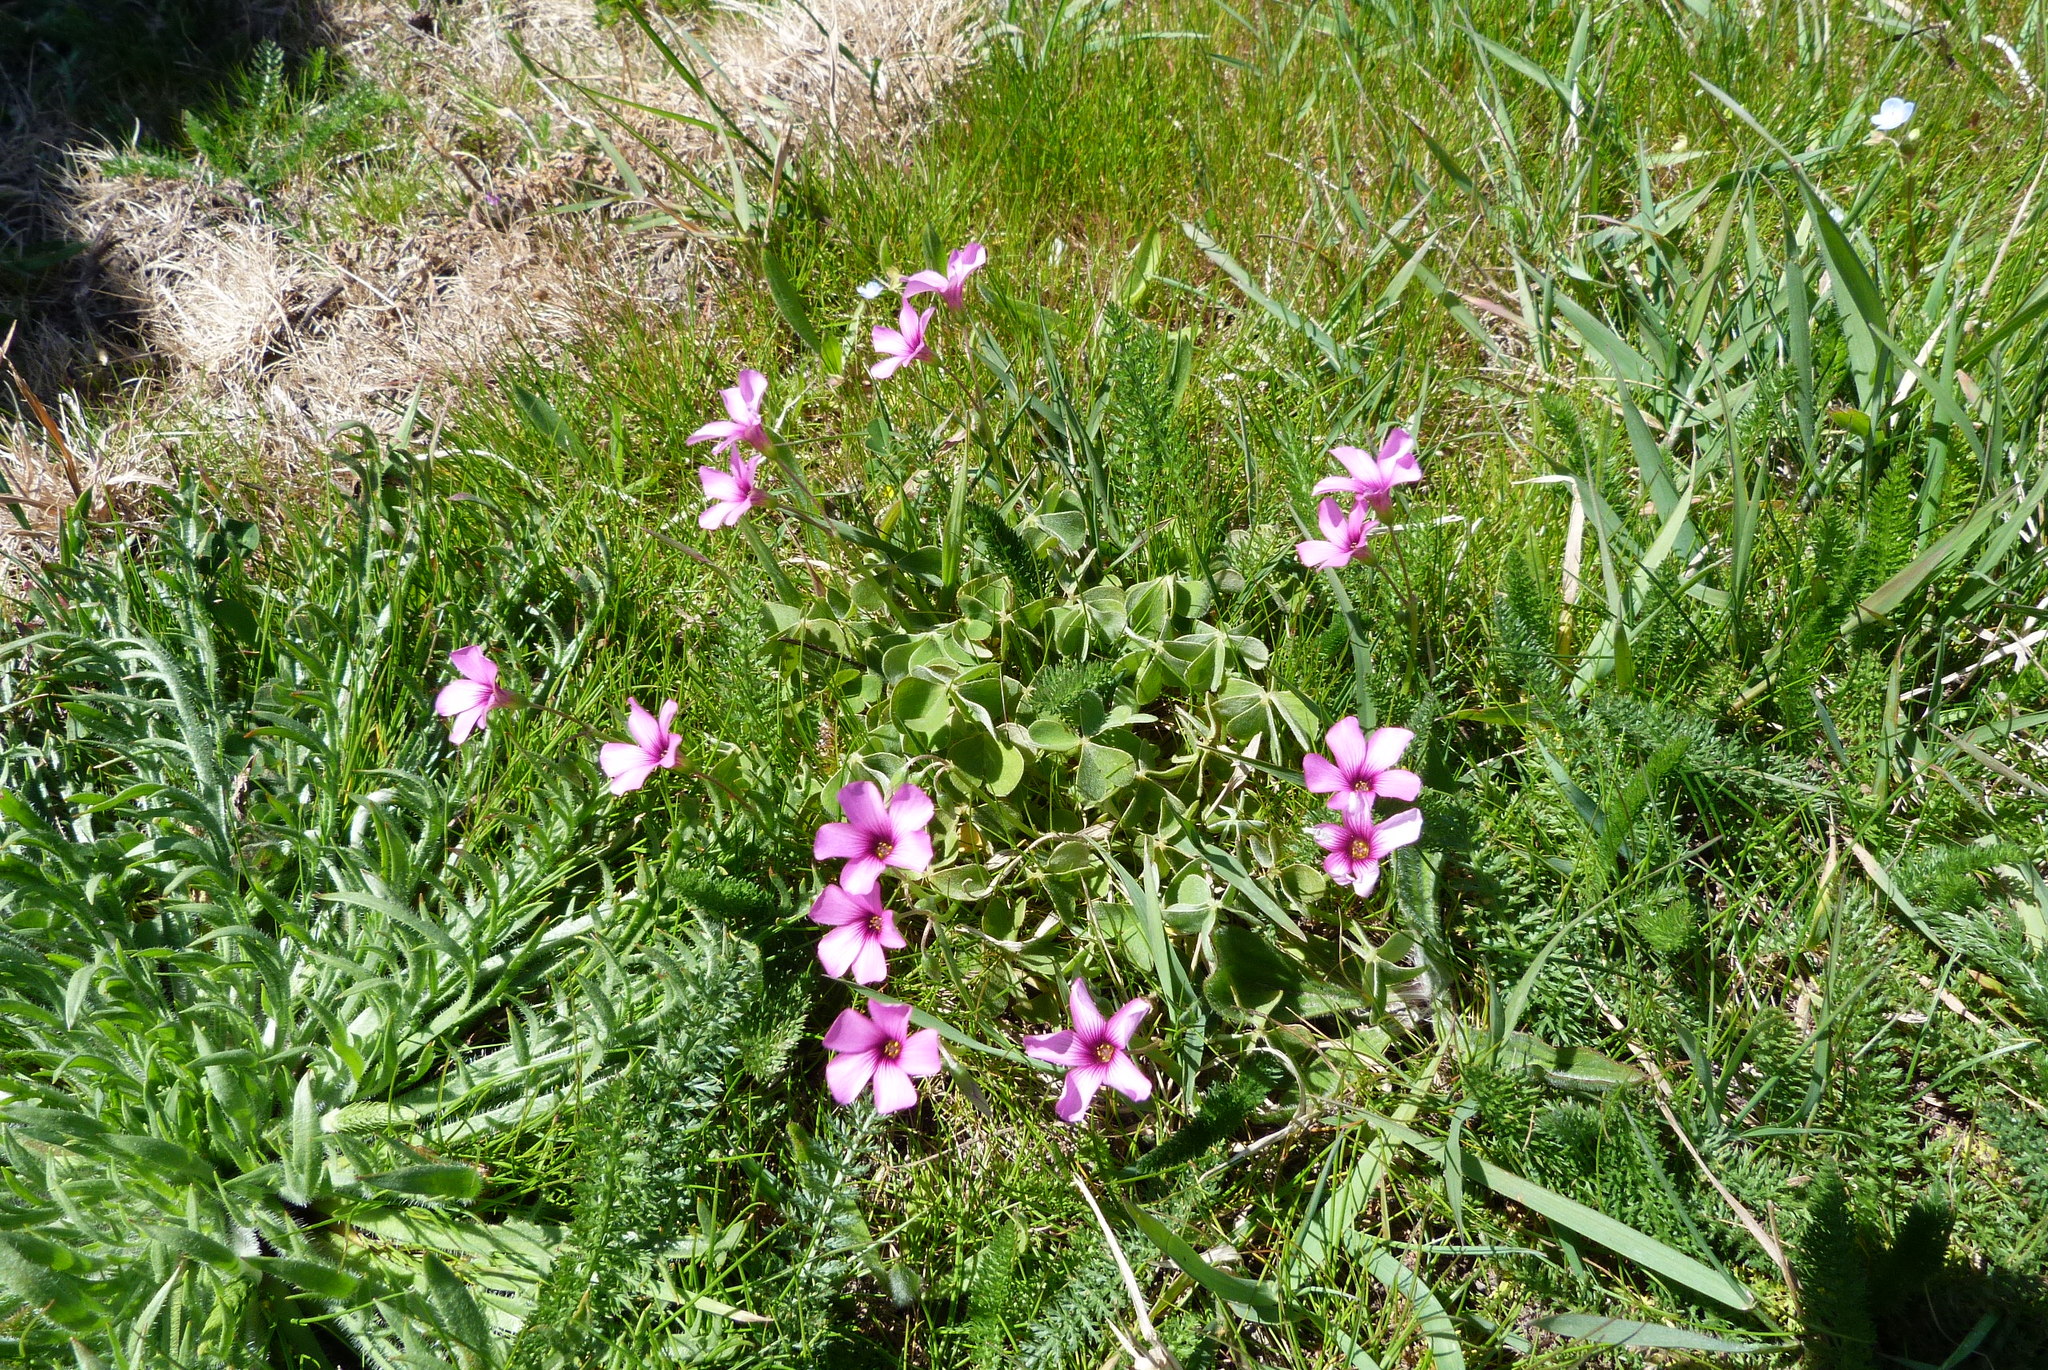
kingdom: Plantae
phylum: Tracheophyta
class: Magnoliopsida
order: Oxalidales
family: Oxalidaceae
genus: Oxalis
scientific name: Oxalis articulata
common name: Pink-sorrel
